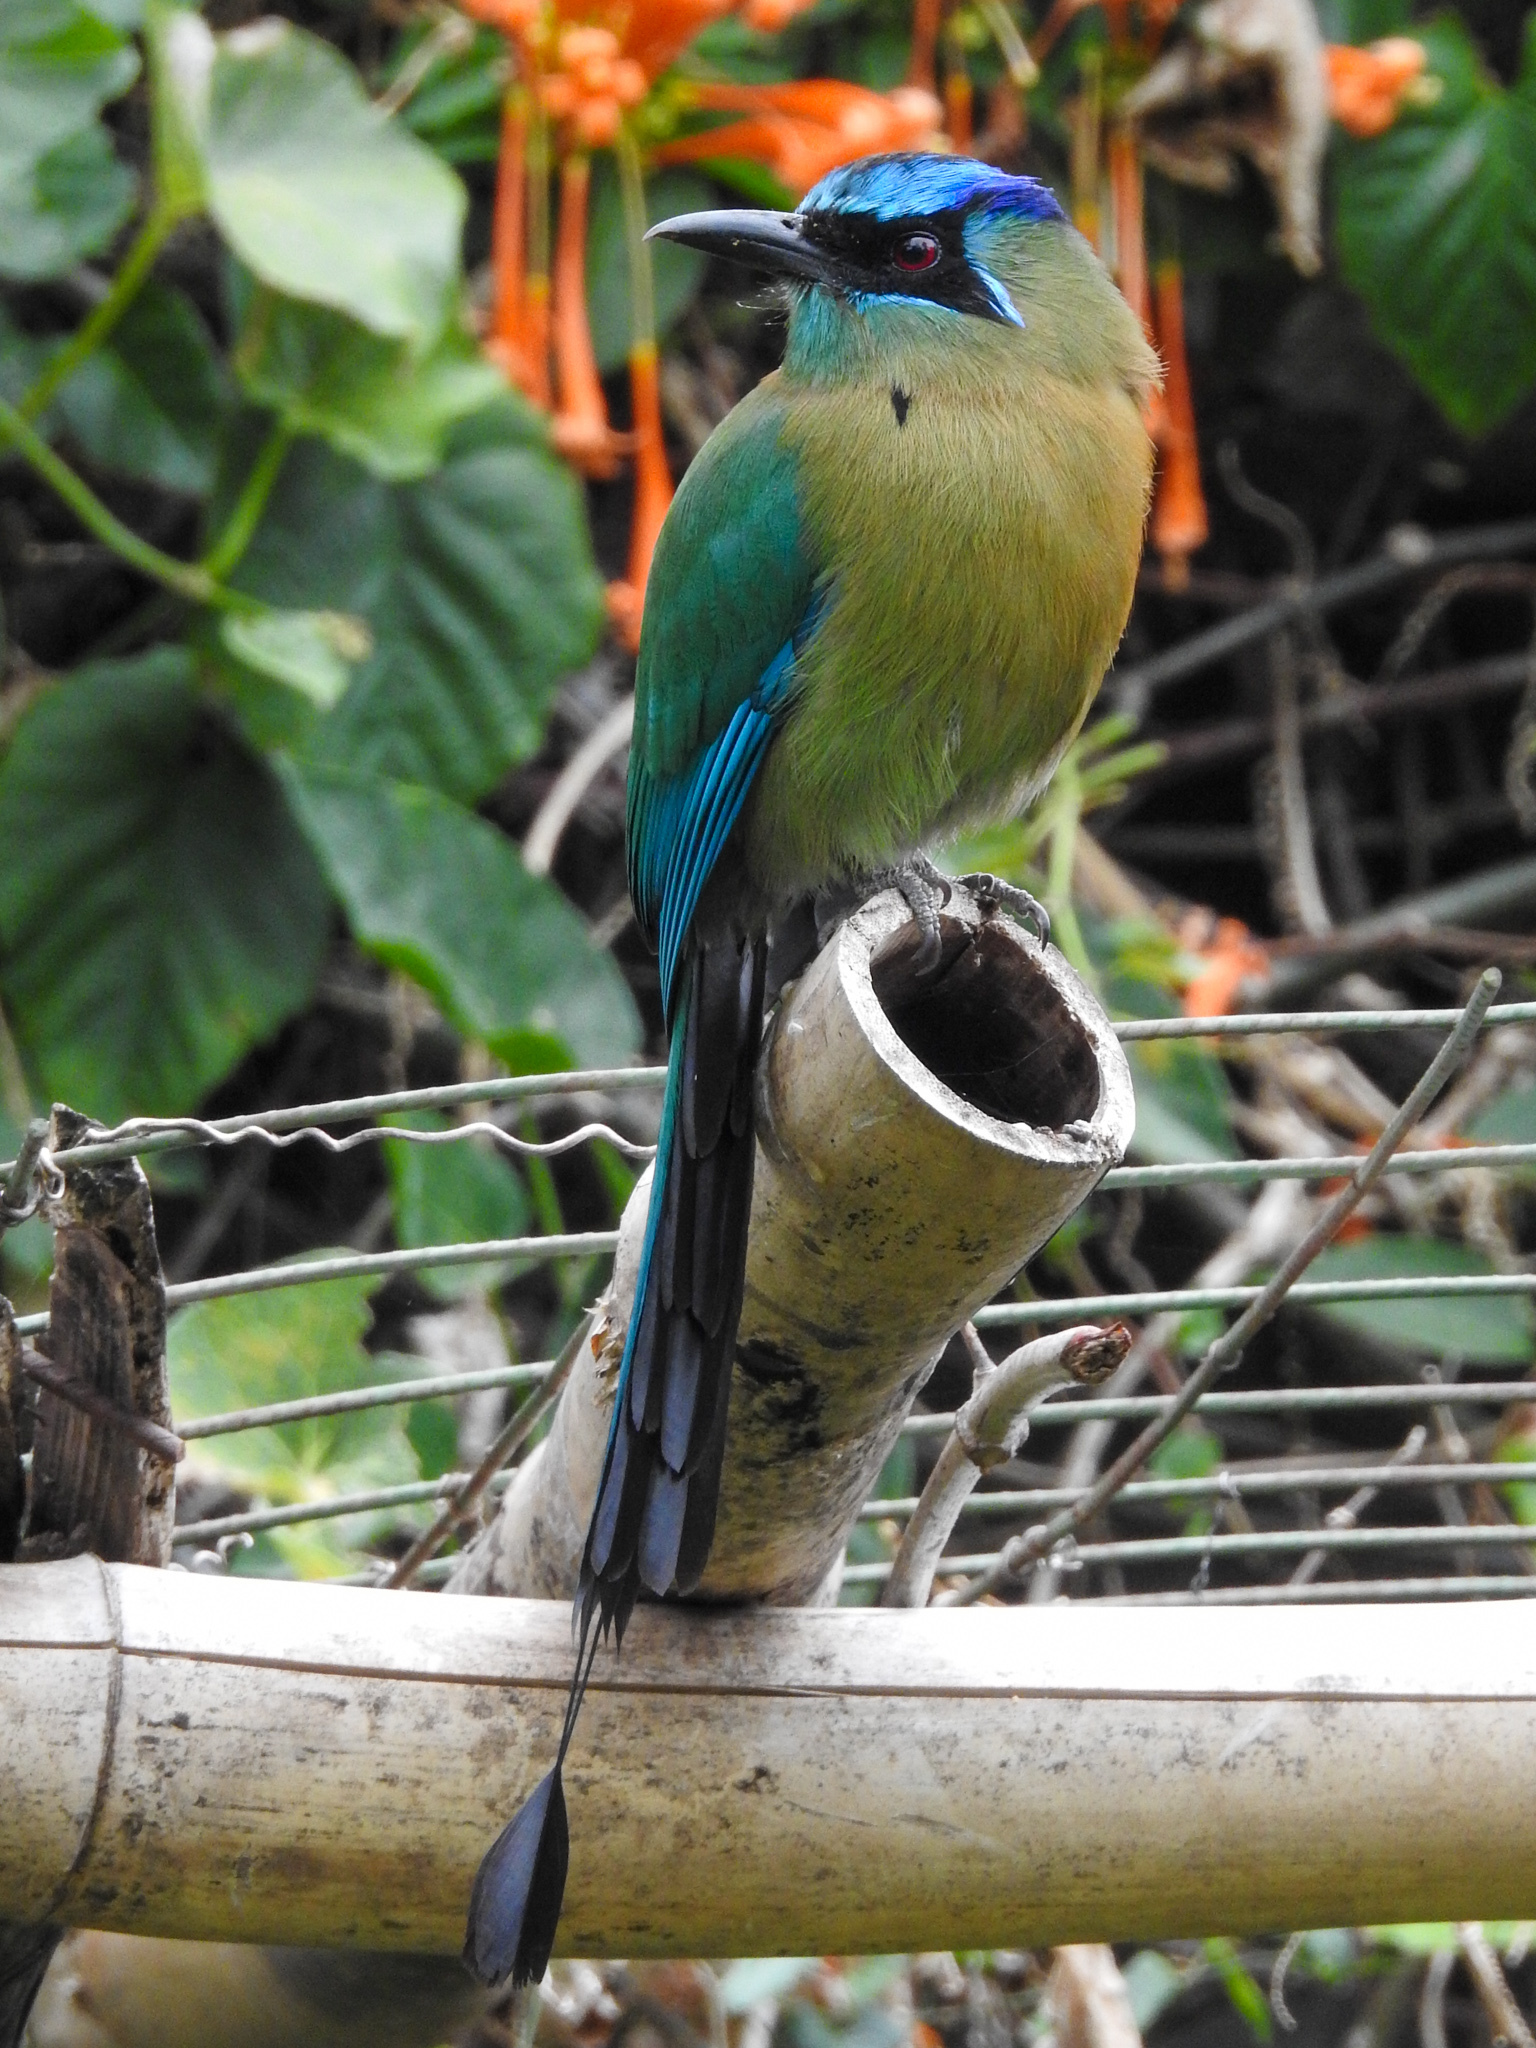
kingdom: Animalia
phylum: Chordata
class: Aves
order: Coraciiformes
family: Momotidae
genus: Momotus
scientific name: Momotus lessonii
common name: Lesson's motmot
